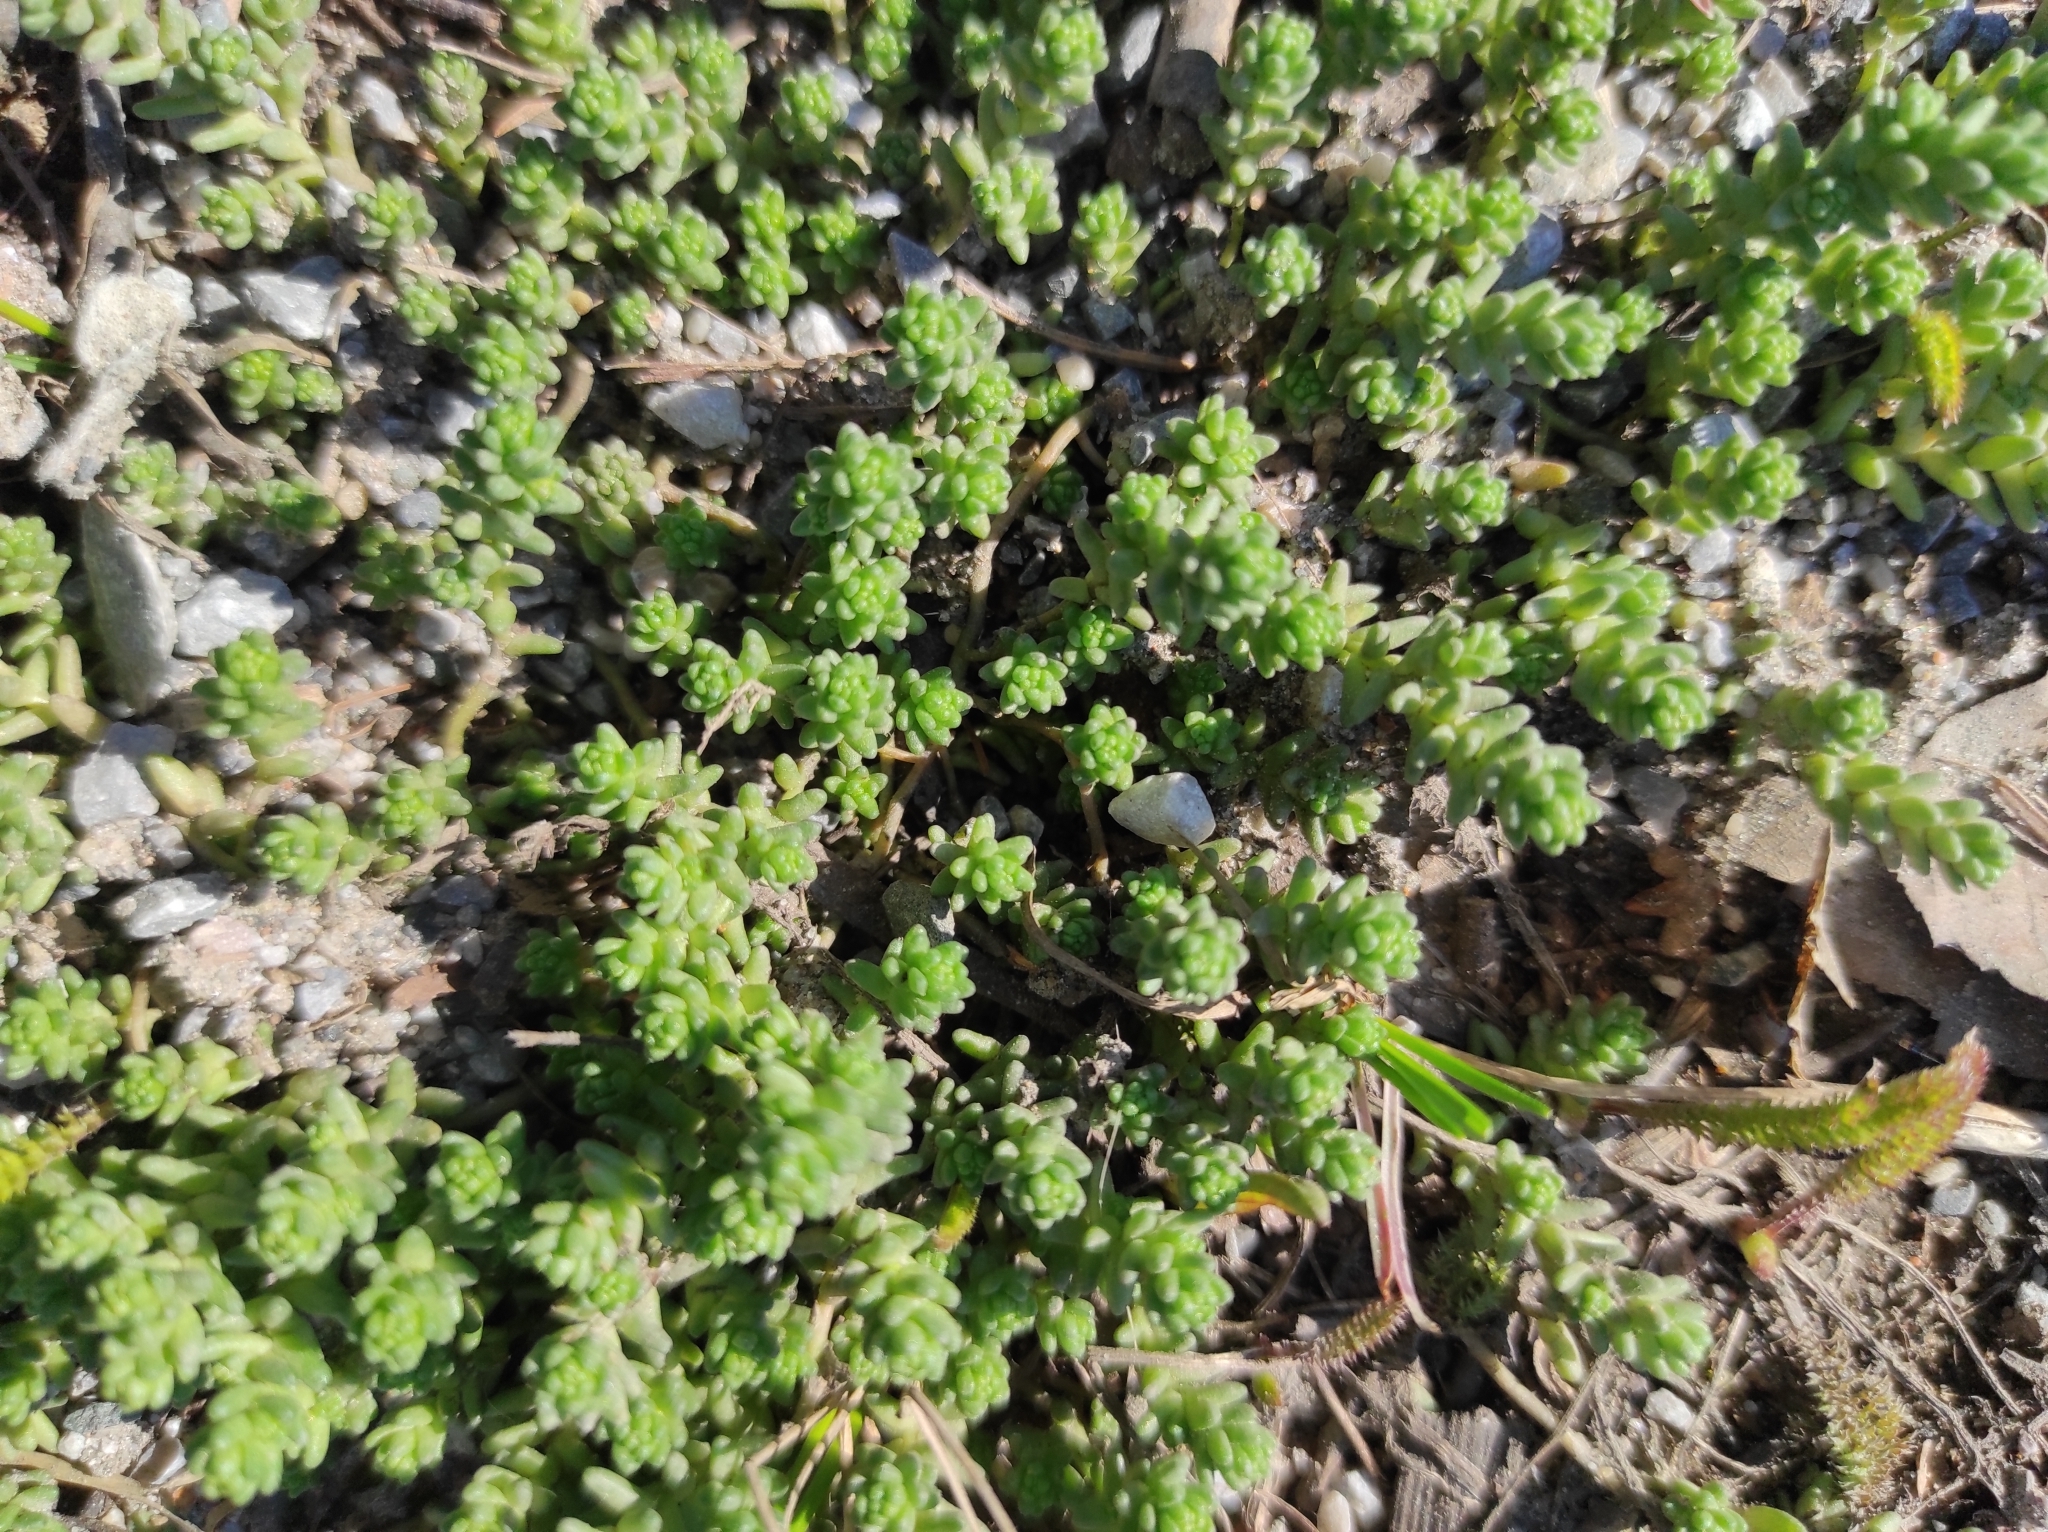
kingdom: Plantae
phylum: Tracheophyta
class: Magnoliopsida
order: Saxifragales
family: Crassulaceae
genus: Sedum
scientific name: Sedum acre
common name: Biting stonecrop
